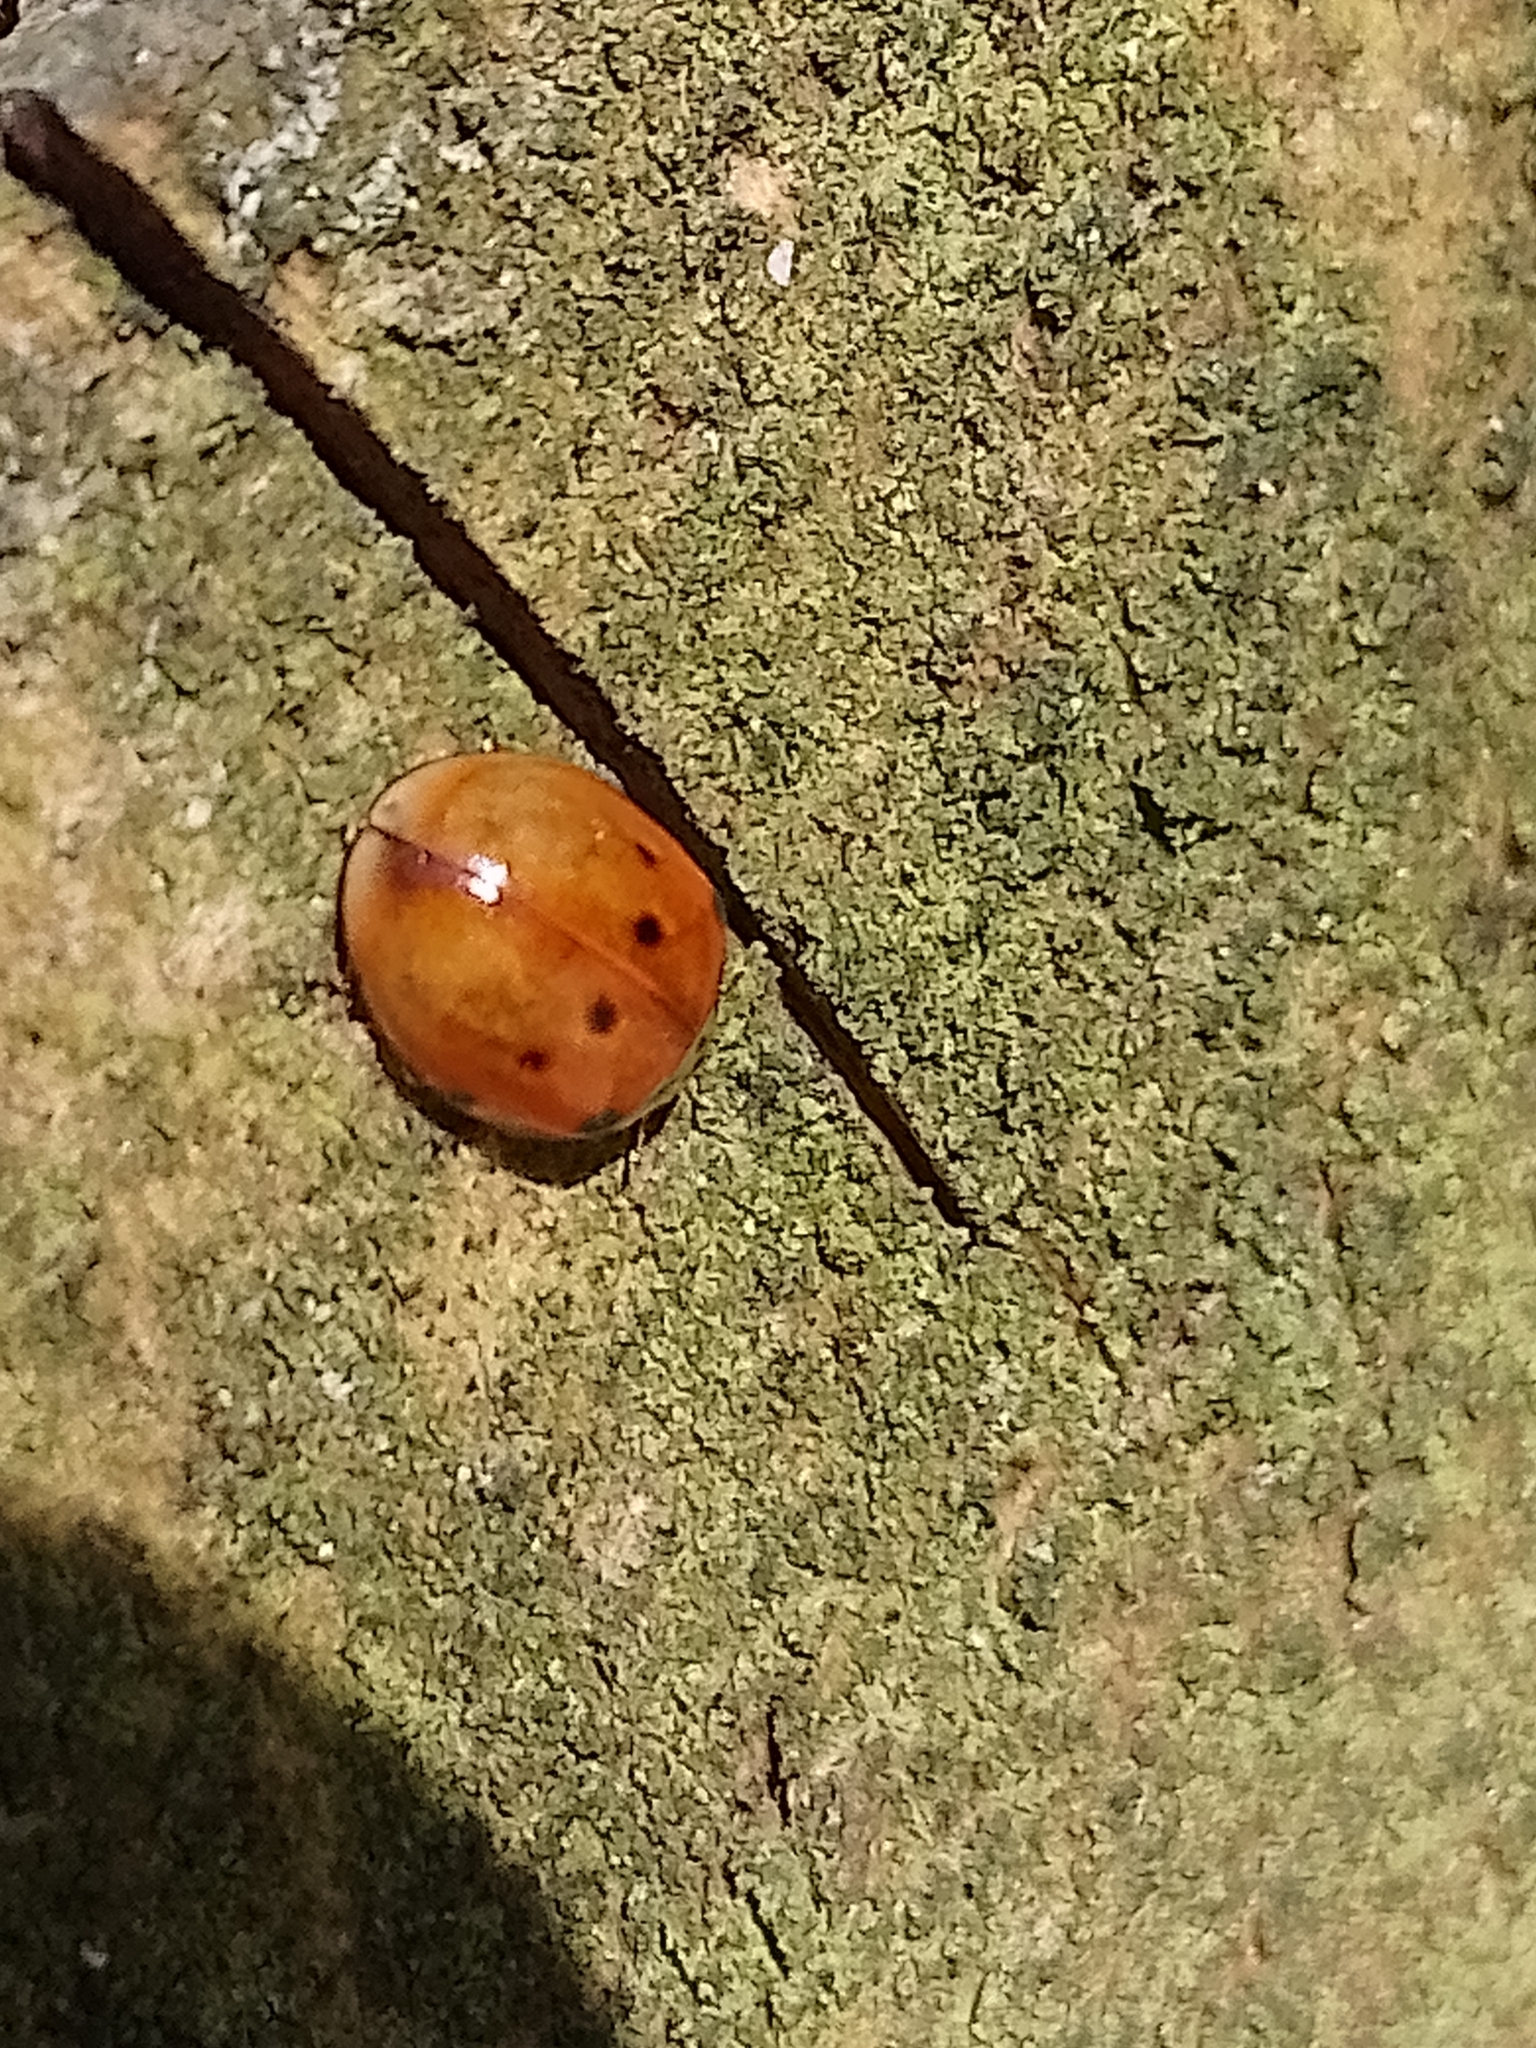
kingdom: Animalia
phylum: Arthropoda
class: Insecta
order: Coleoptera
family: Coccinellidae
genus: Harmonia
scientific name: Harmonia axyridis
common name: Harlequin ladybird
